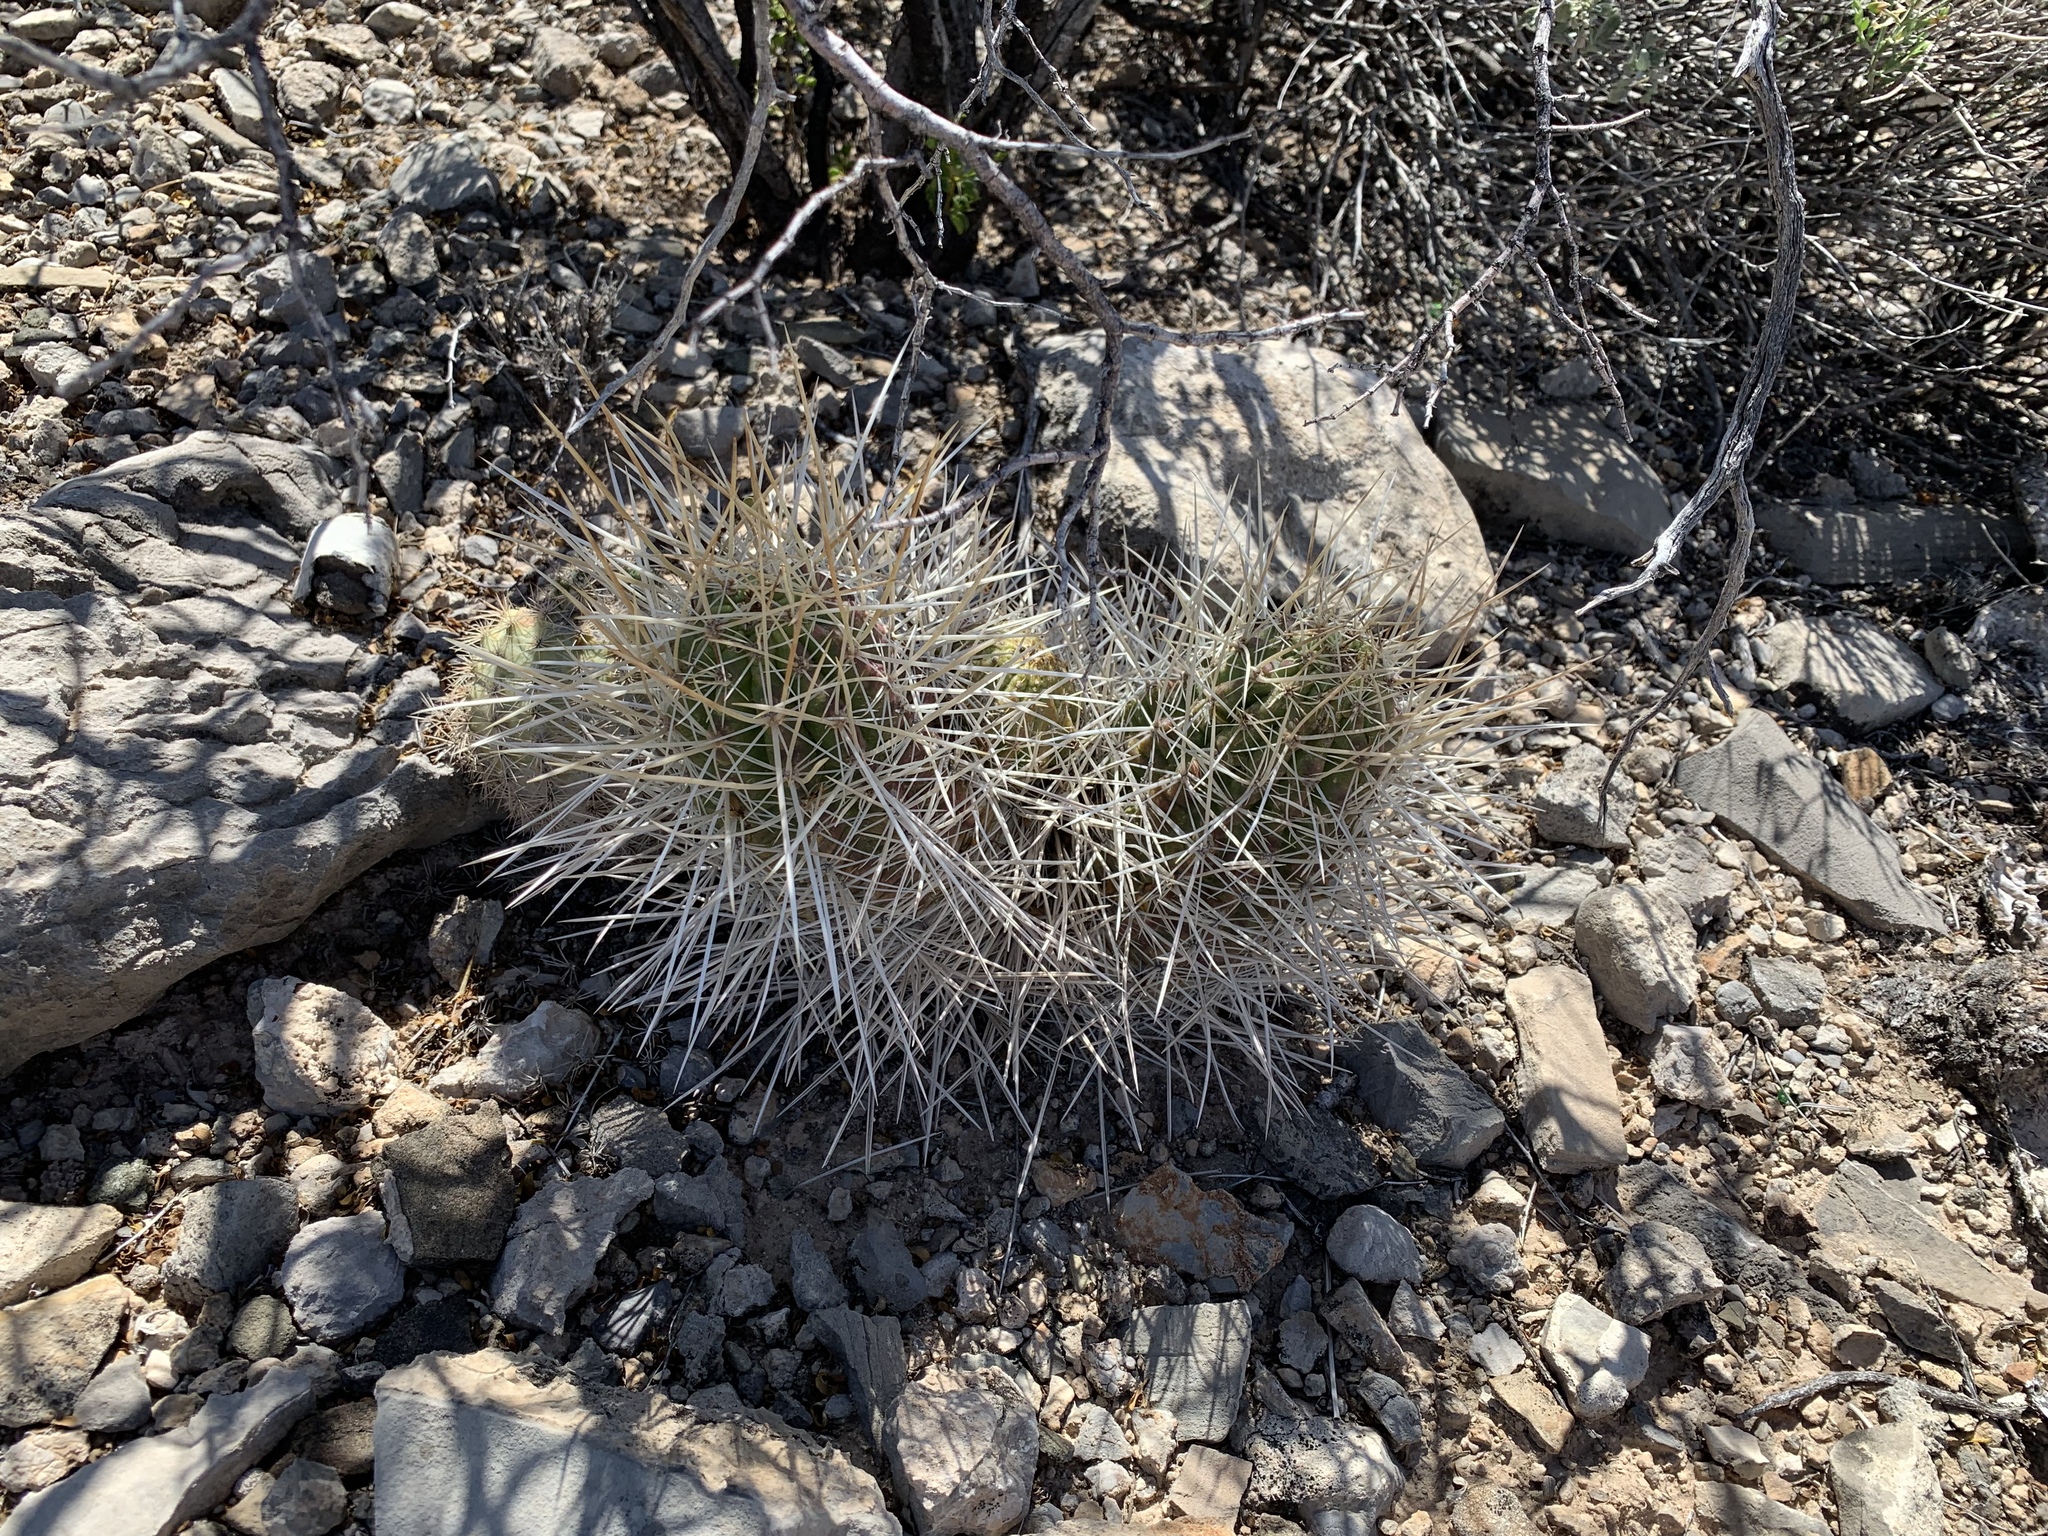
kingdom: Plantae
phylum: Tracheophyta
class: Magnoliopsida
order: Caryophyllales
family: Cactaceae
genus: Echinocereus
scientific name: Echinocereus stramineus
